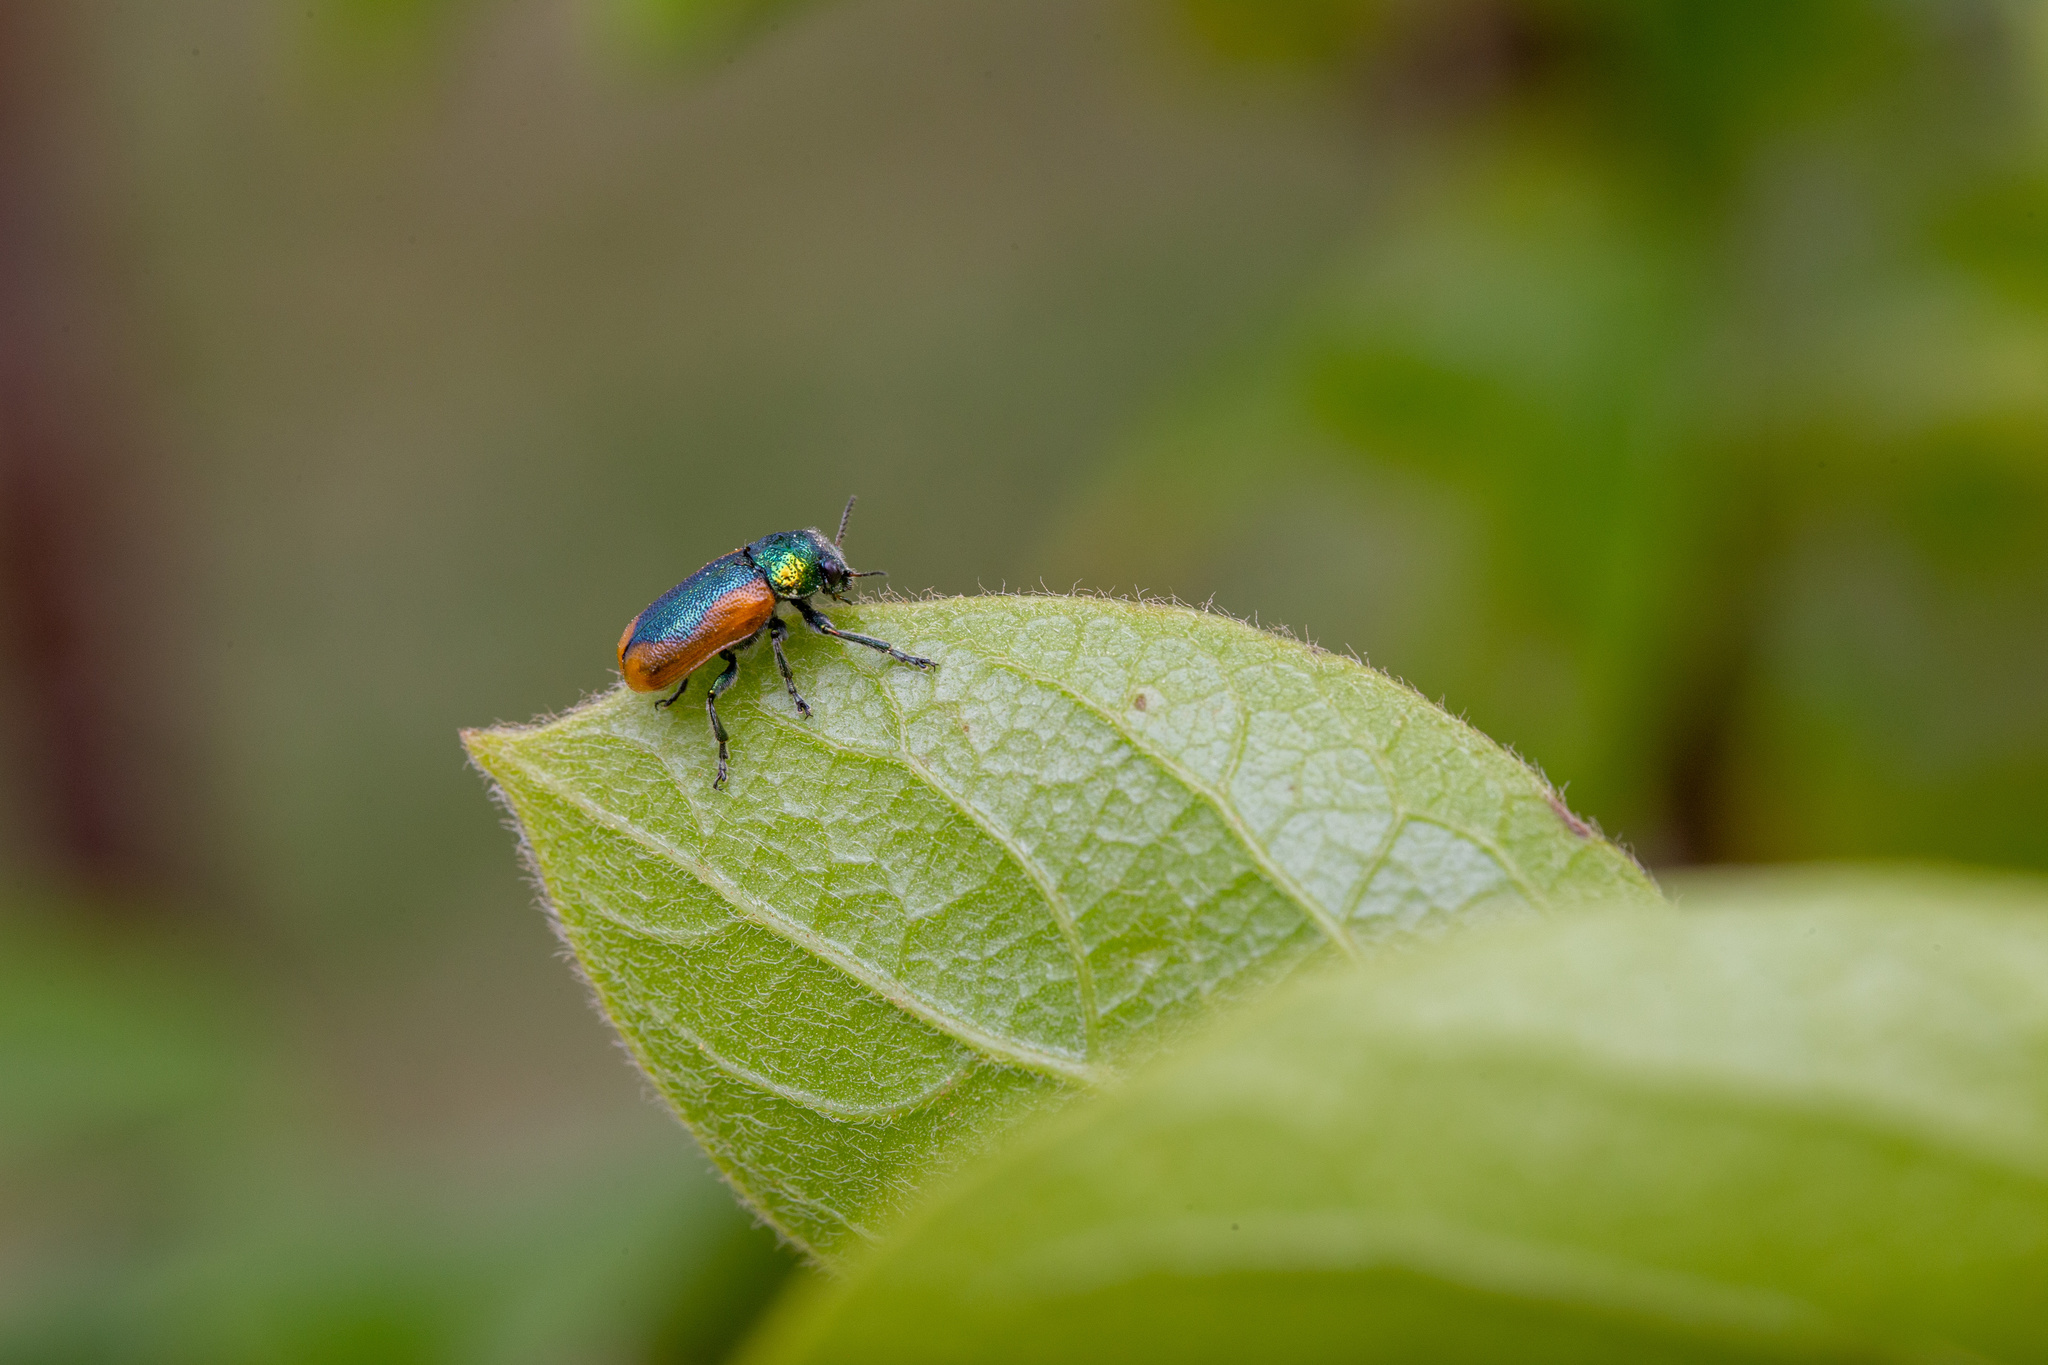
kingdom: Animalia
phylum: Arthropoda
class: Insecta
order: Coleoptera
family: Chrysomelidae
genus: Smaragdina
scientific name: Smaragdina limbata
